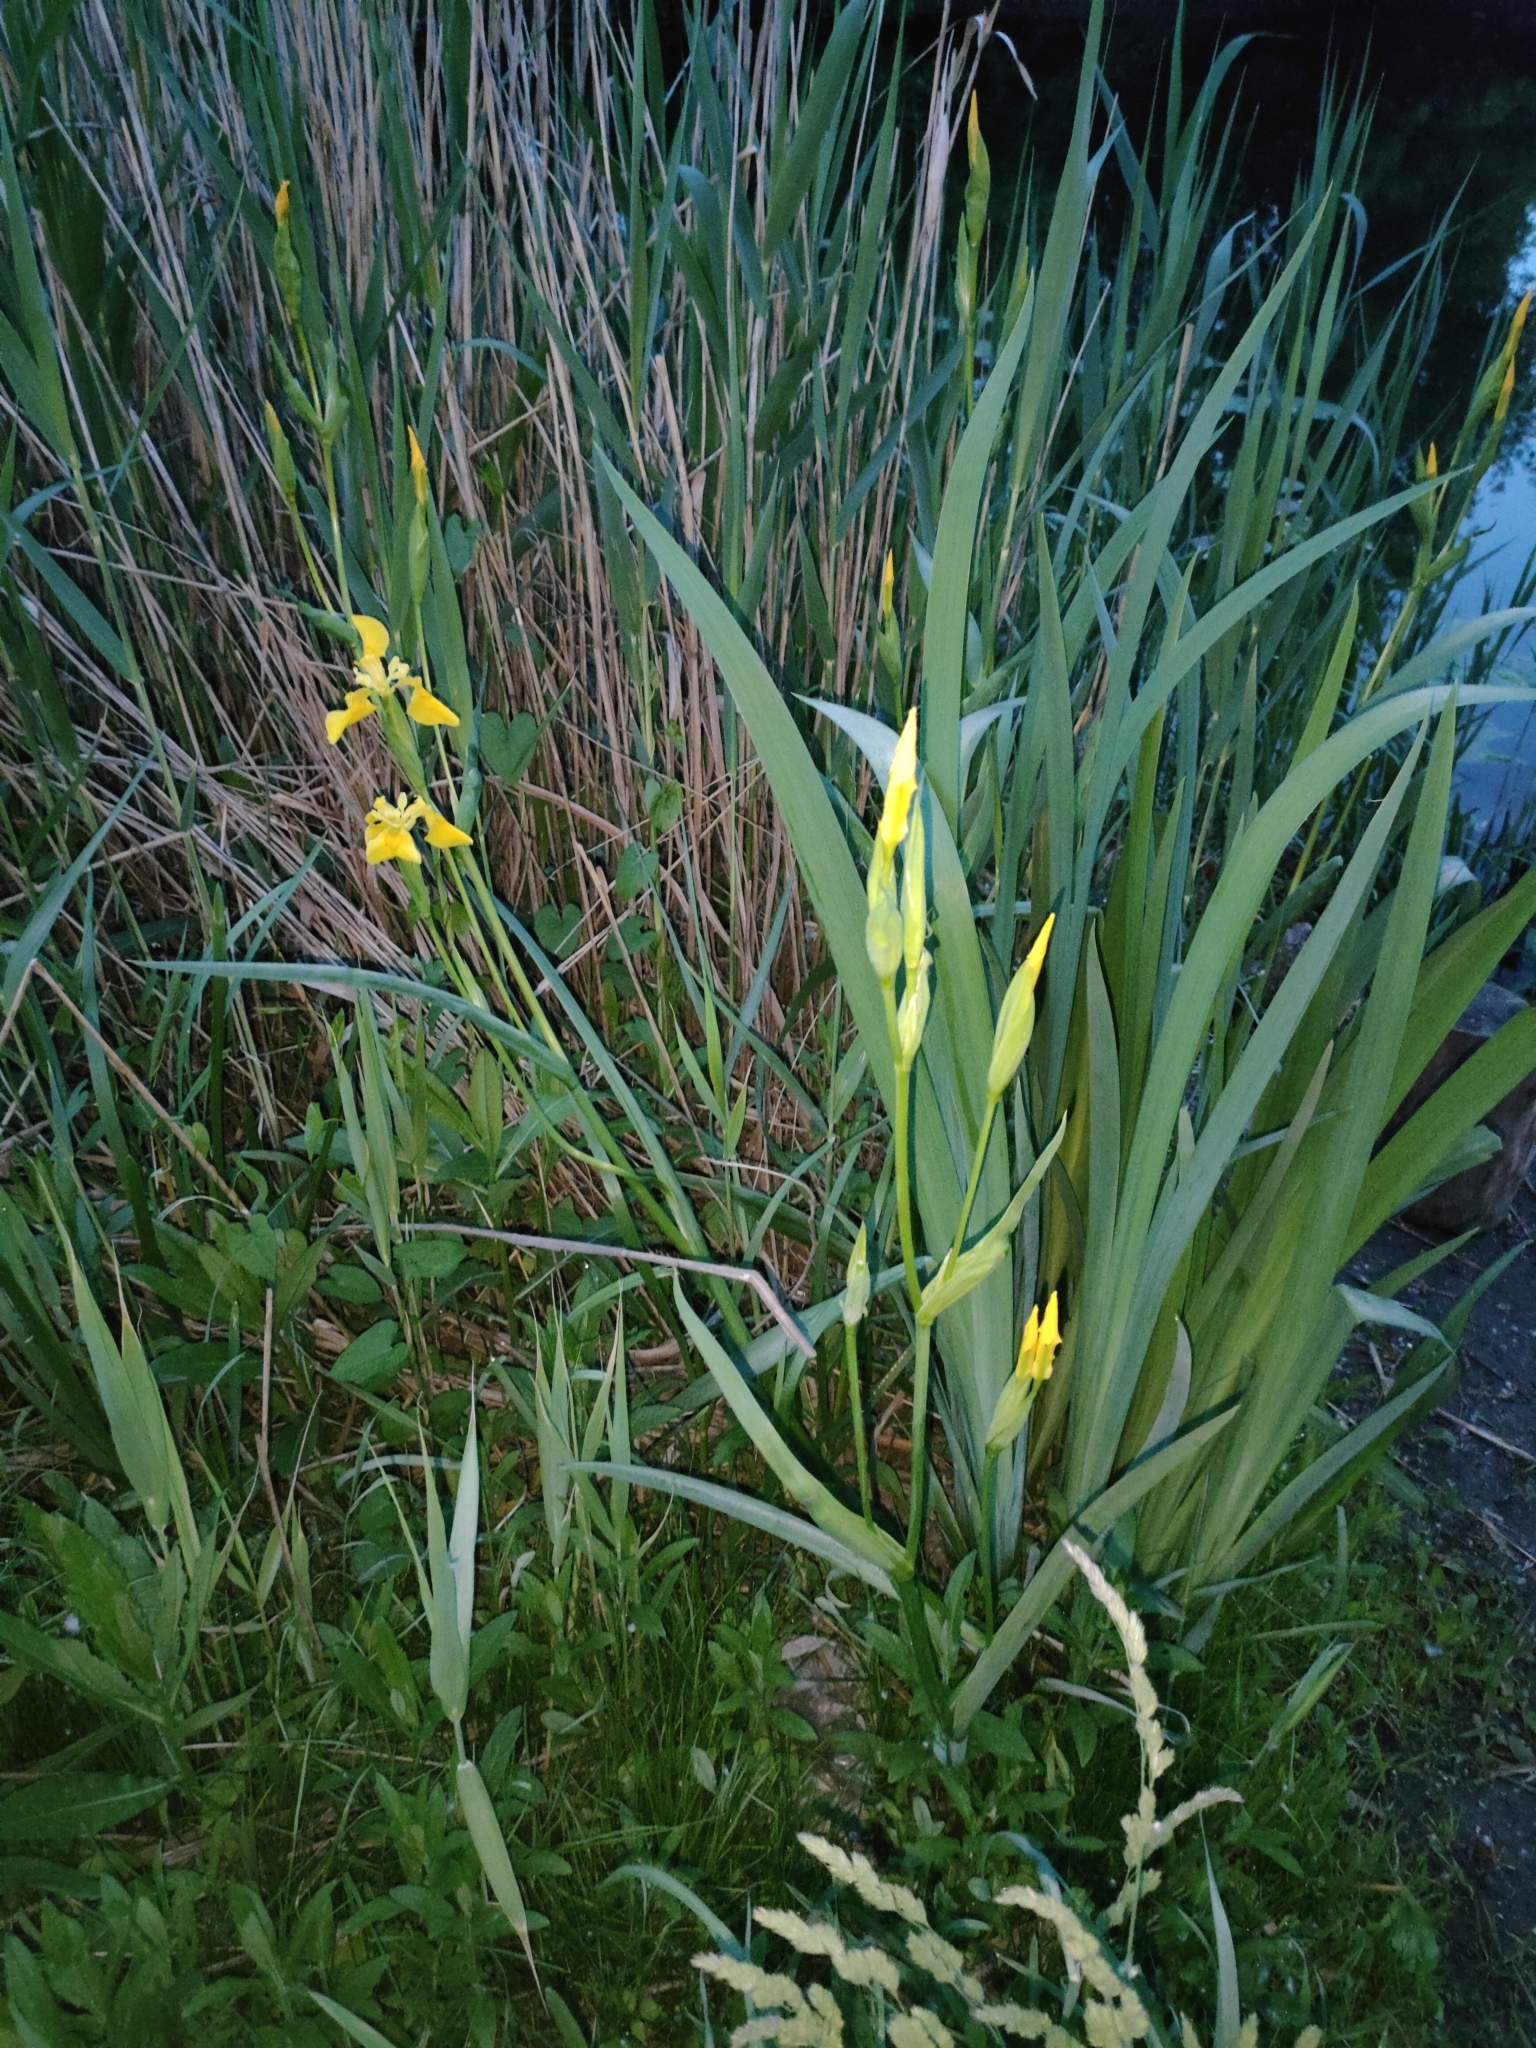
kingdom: Plantae
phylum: Tracheophyta
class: Liliopsida
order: Asparagales
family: Iridaceae
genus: Iris
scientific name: Iris pseudacorus
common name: Yellow flag
